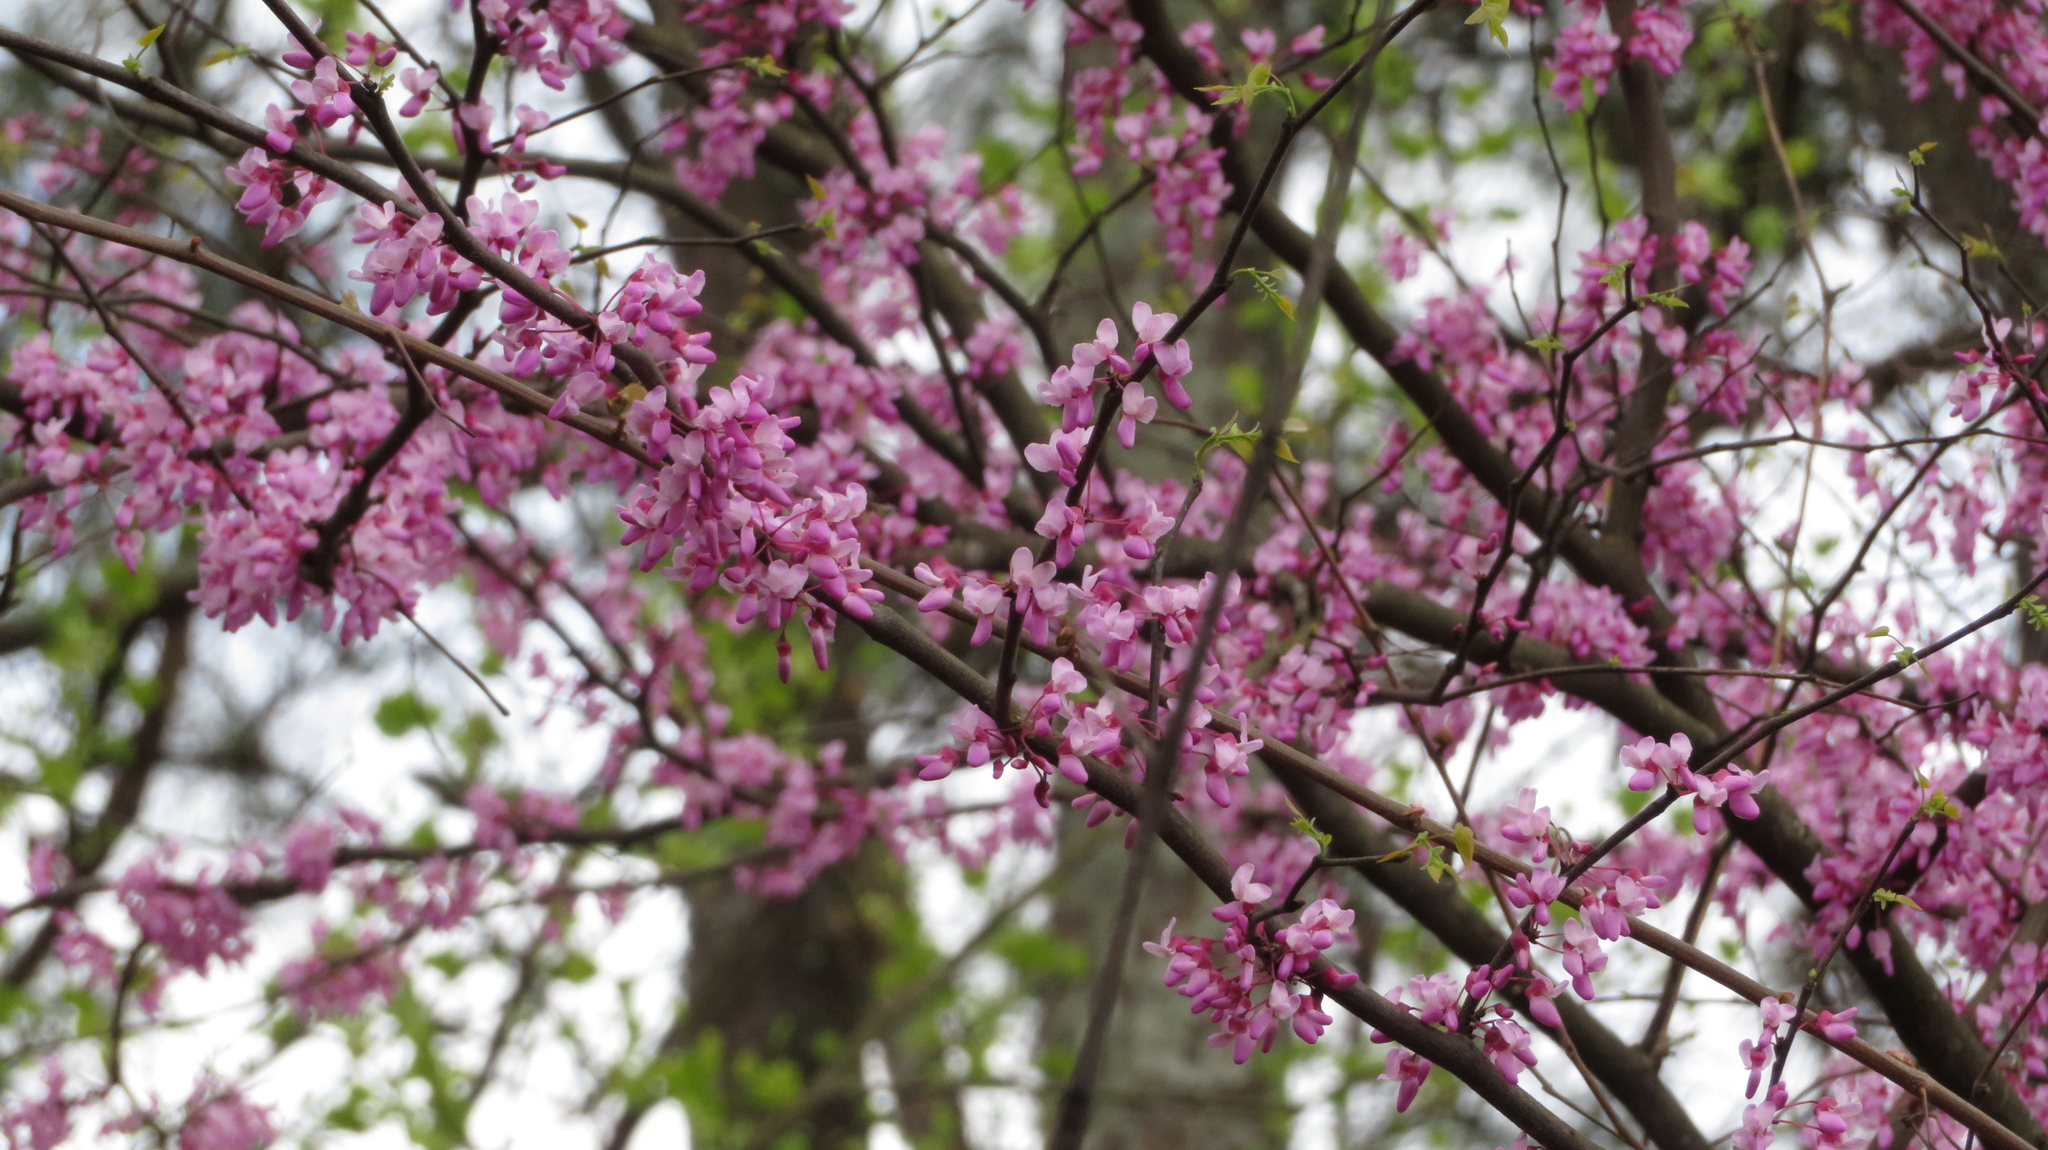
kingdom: Plantae
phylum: Tracheophyta
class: Magnoliopsida
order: Fabales
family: Fabaceae
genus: Cercis
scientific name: Cercis canadensis
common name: Eastern redbud
